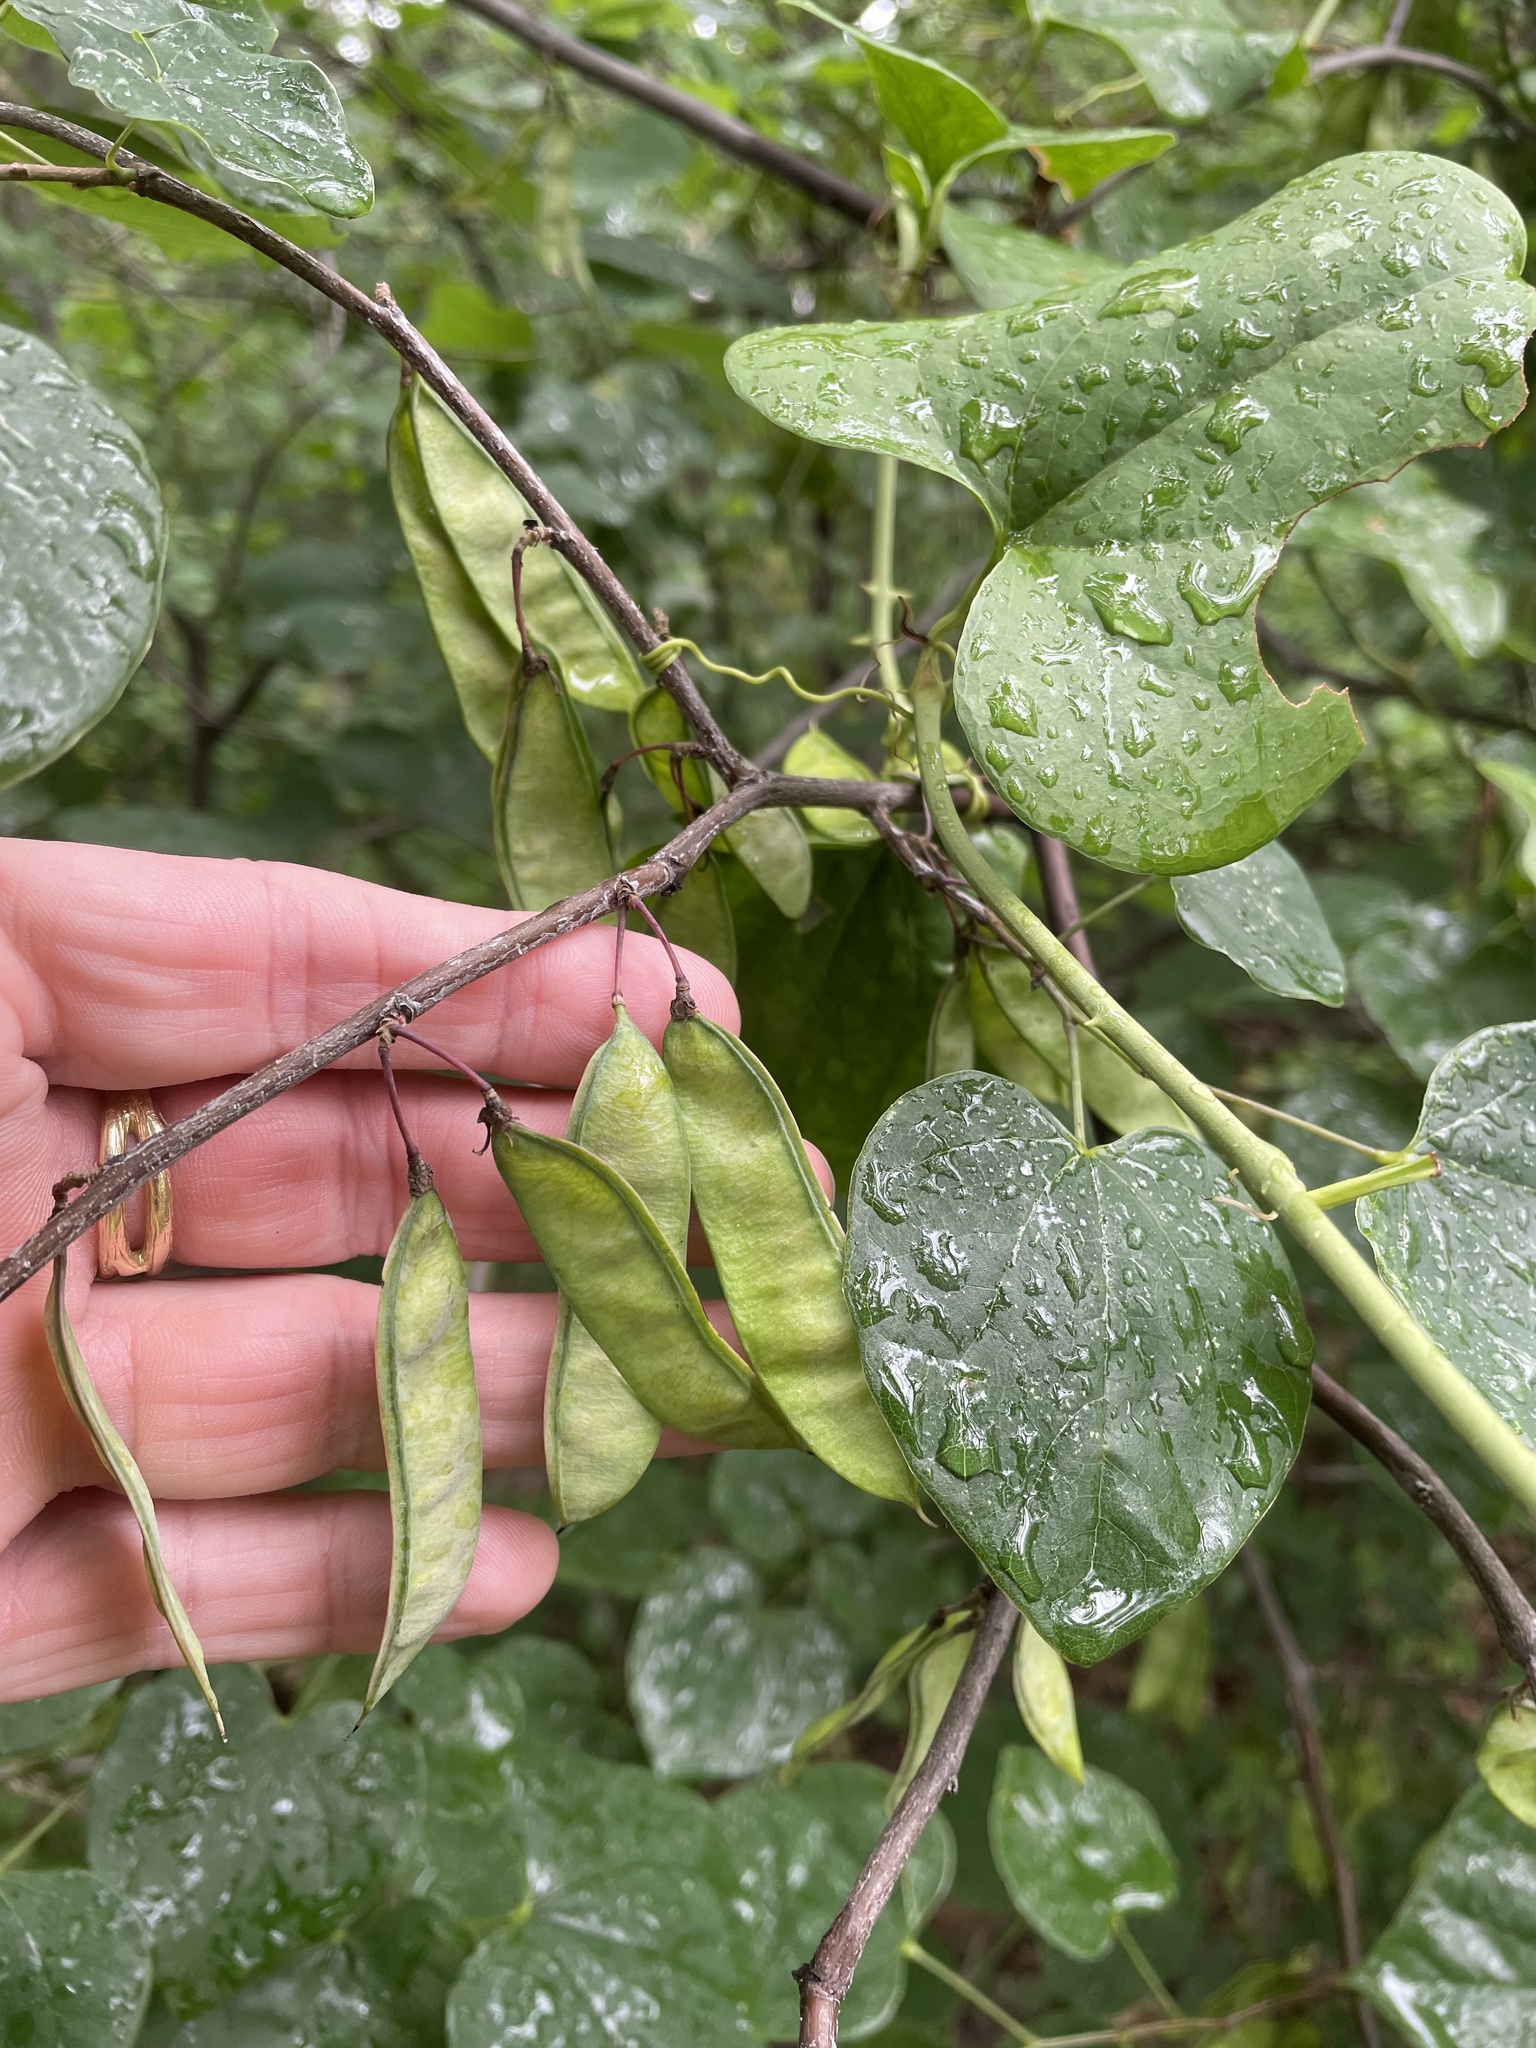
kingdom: Plantae
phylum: Tracheophyta
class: Magnoliopsida
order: Fabales
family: Fabaceae
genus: Cercis
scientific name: Cercis canadensis
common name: Eastern redbud
